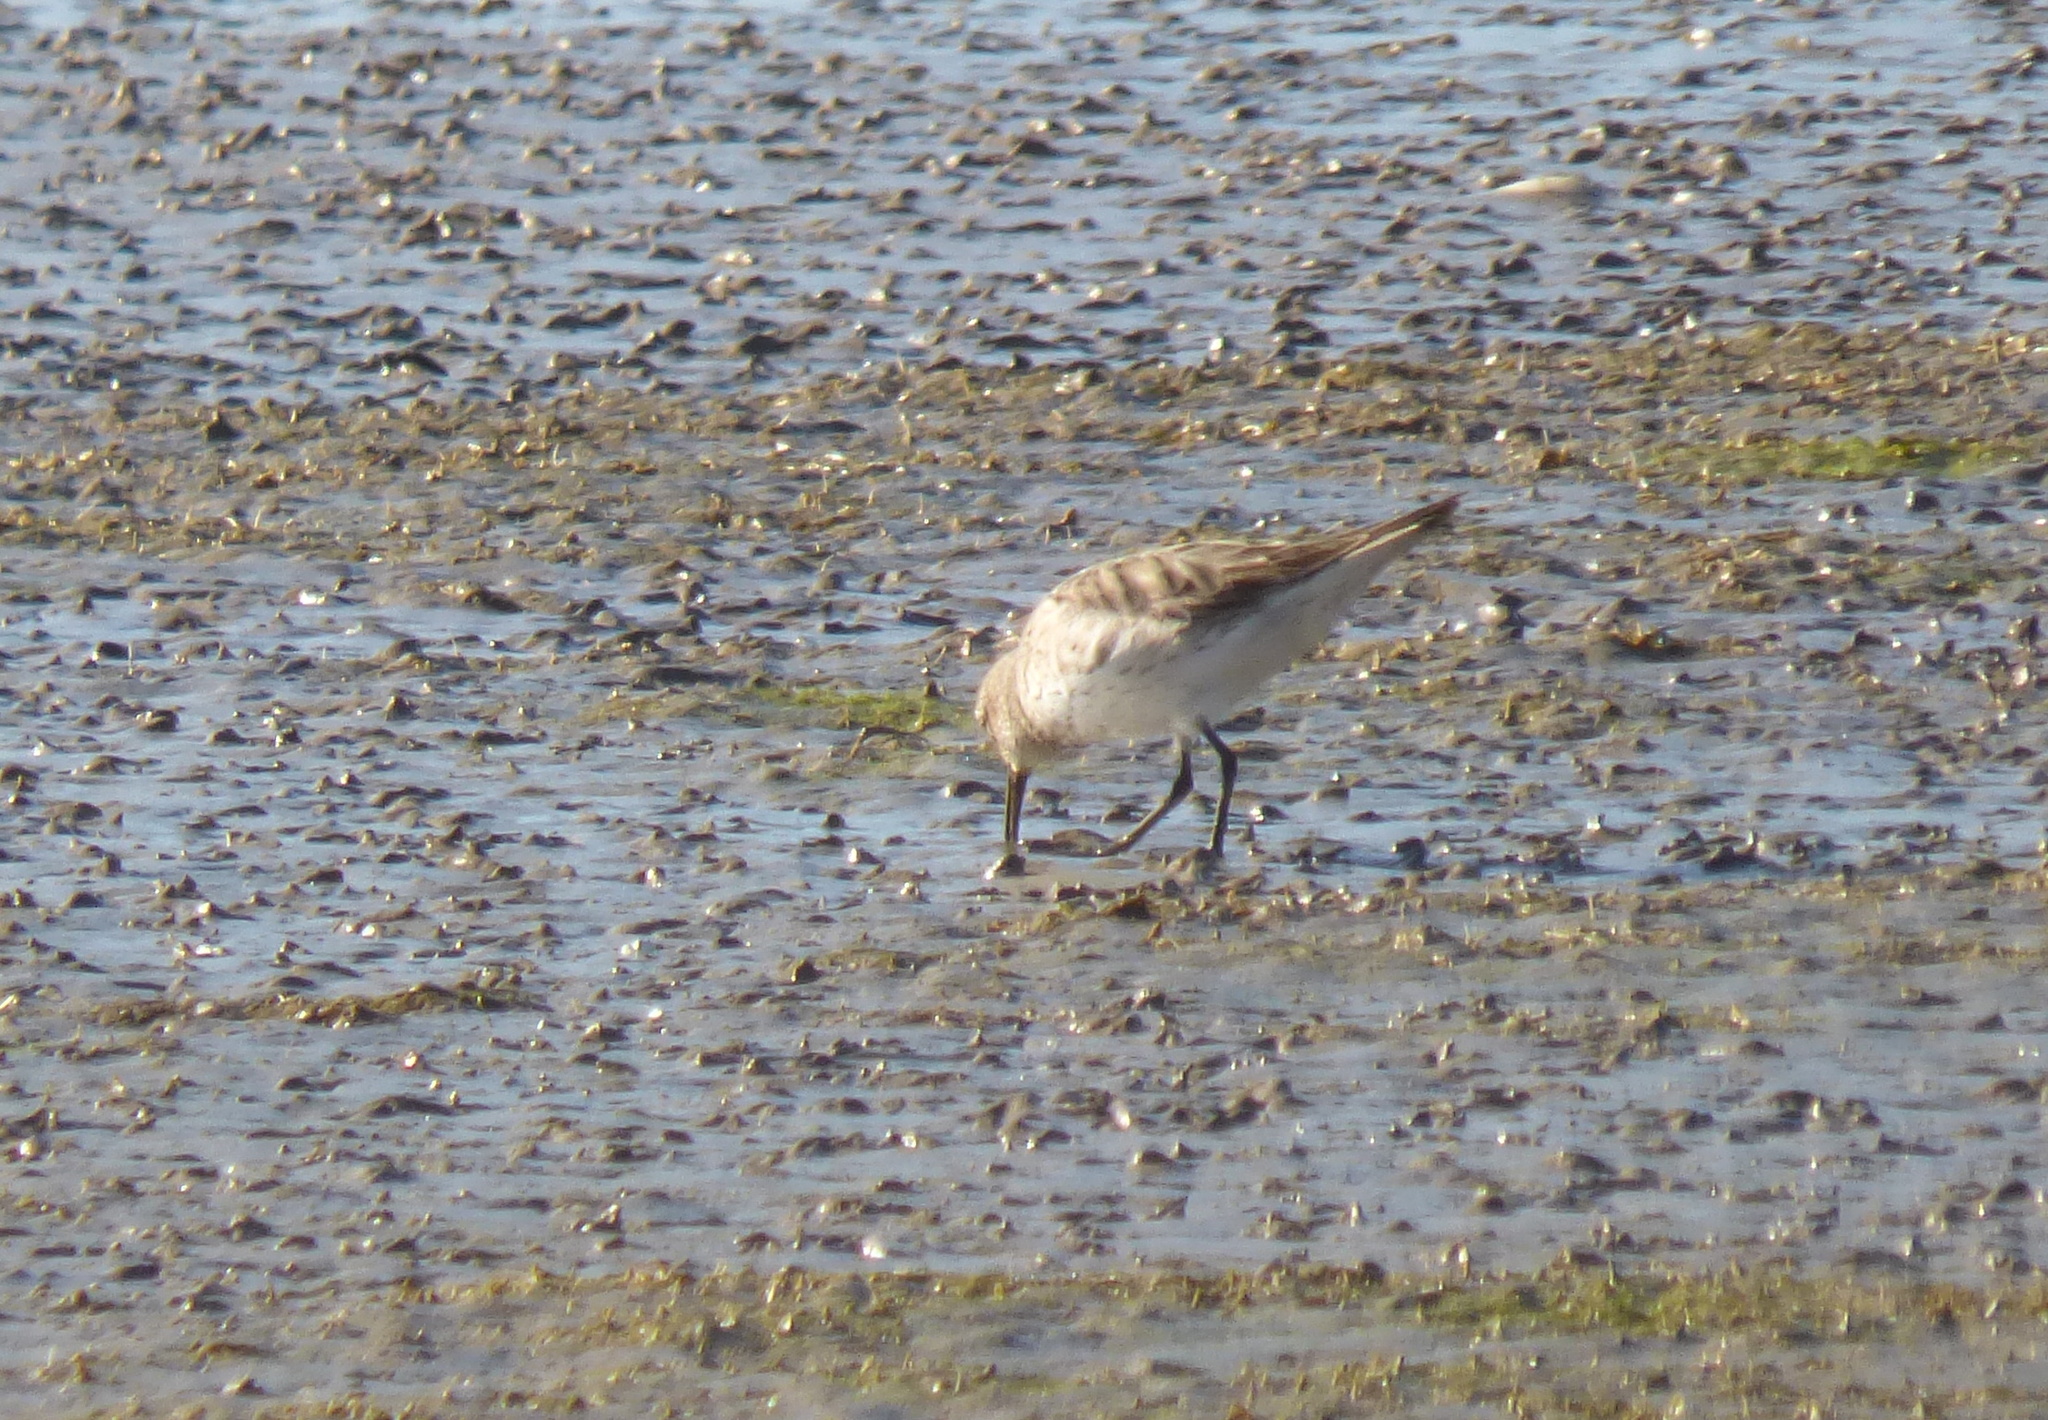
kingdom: Animalia
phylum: Chordata
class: Aves
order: Charadriiformes
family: Scolopacidae
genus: Calidris
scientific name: Calidris fuscicollis
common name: White-rumped sandpiper
